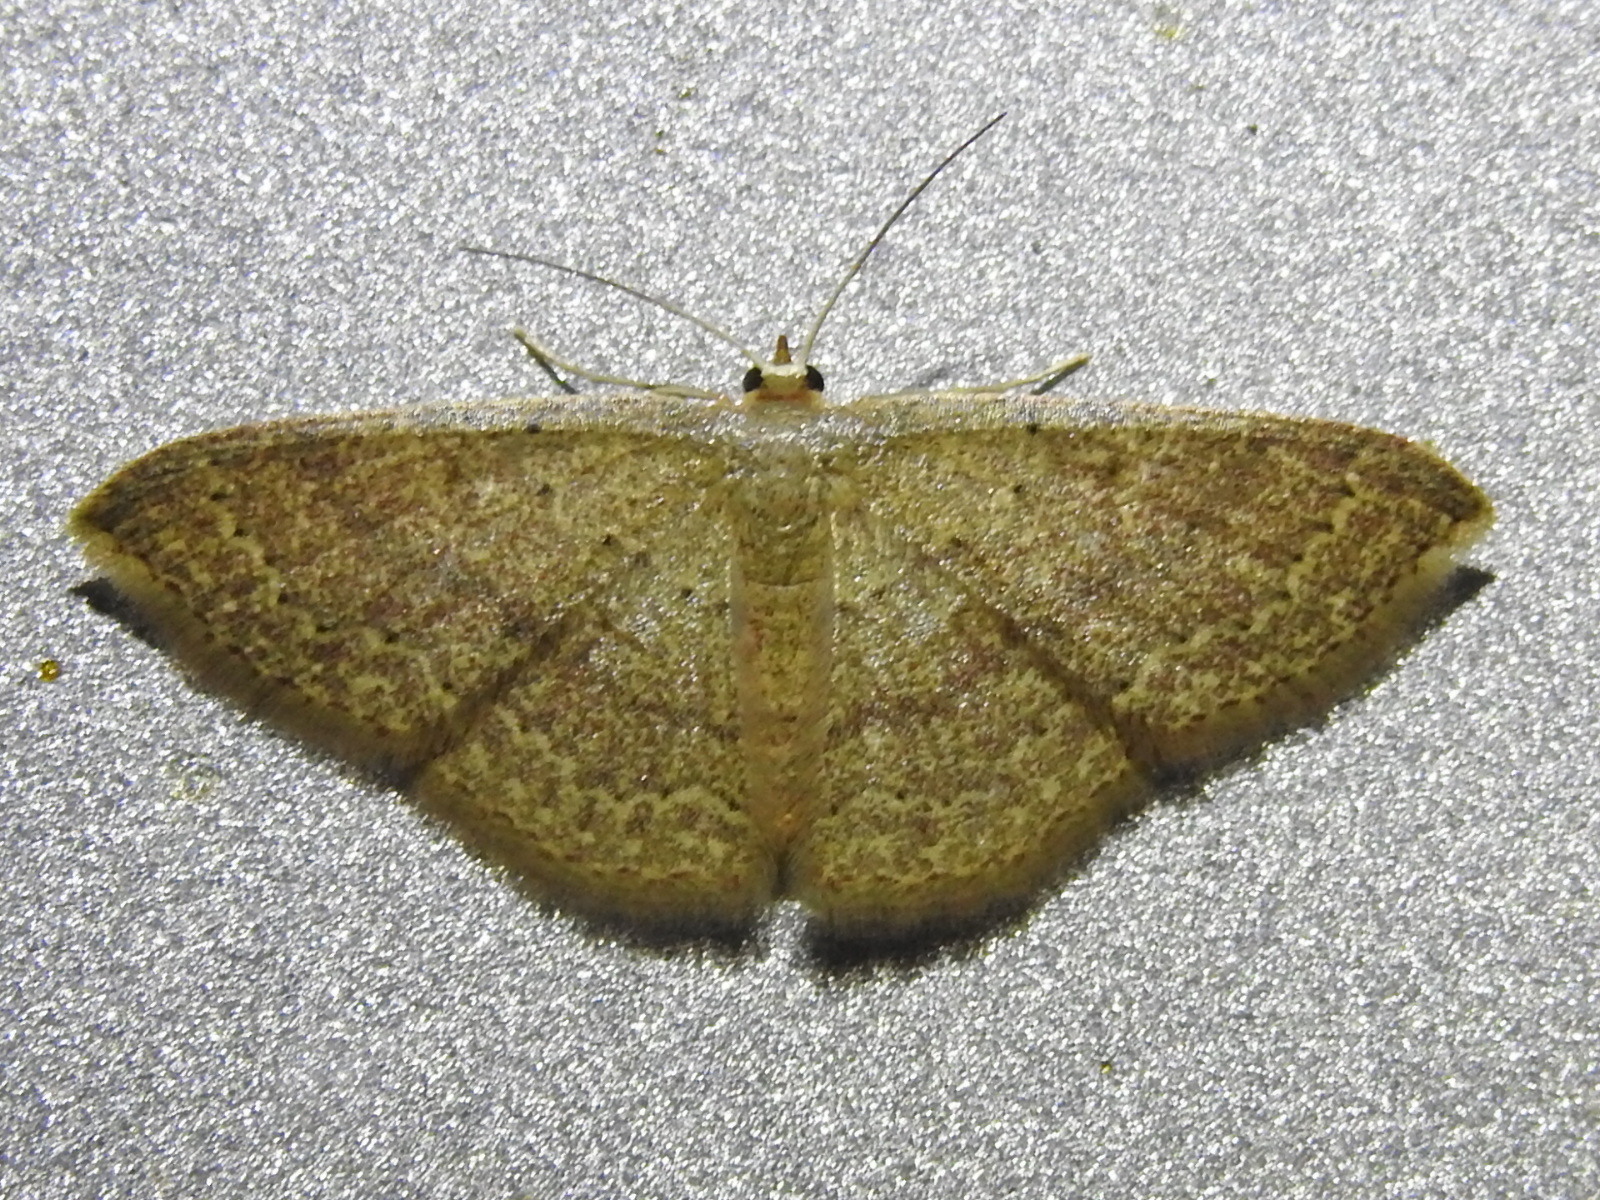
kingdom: Animalia
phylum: Arthropoda
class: Insecta
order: Lepidoptera
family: Geometridae
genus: Pleuroprucha
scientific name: Pleuroprucha insulsaria
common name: Common tan wave
